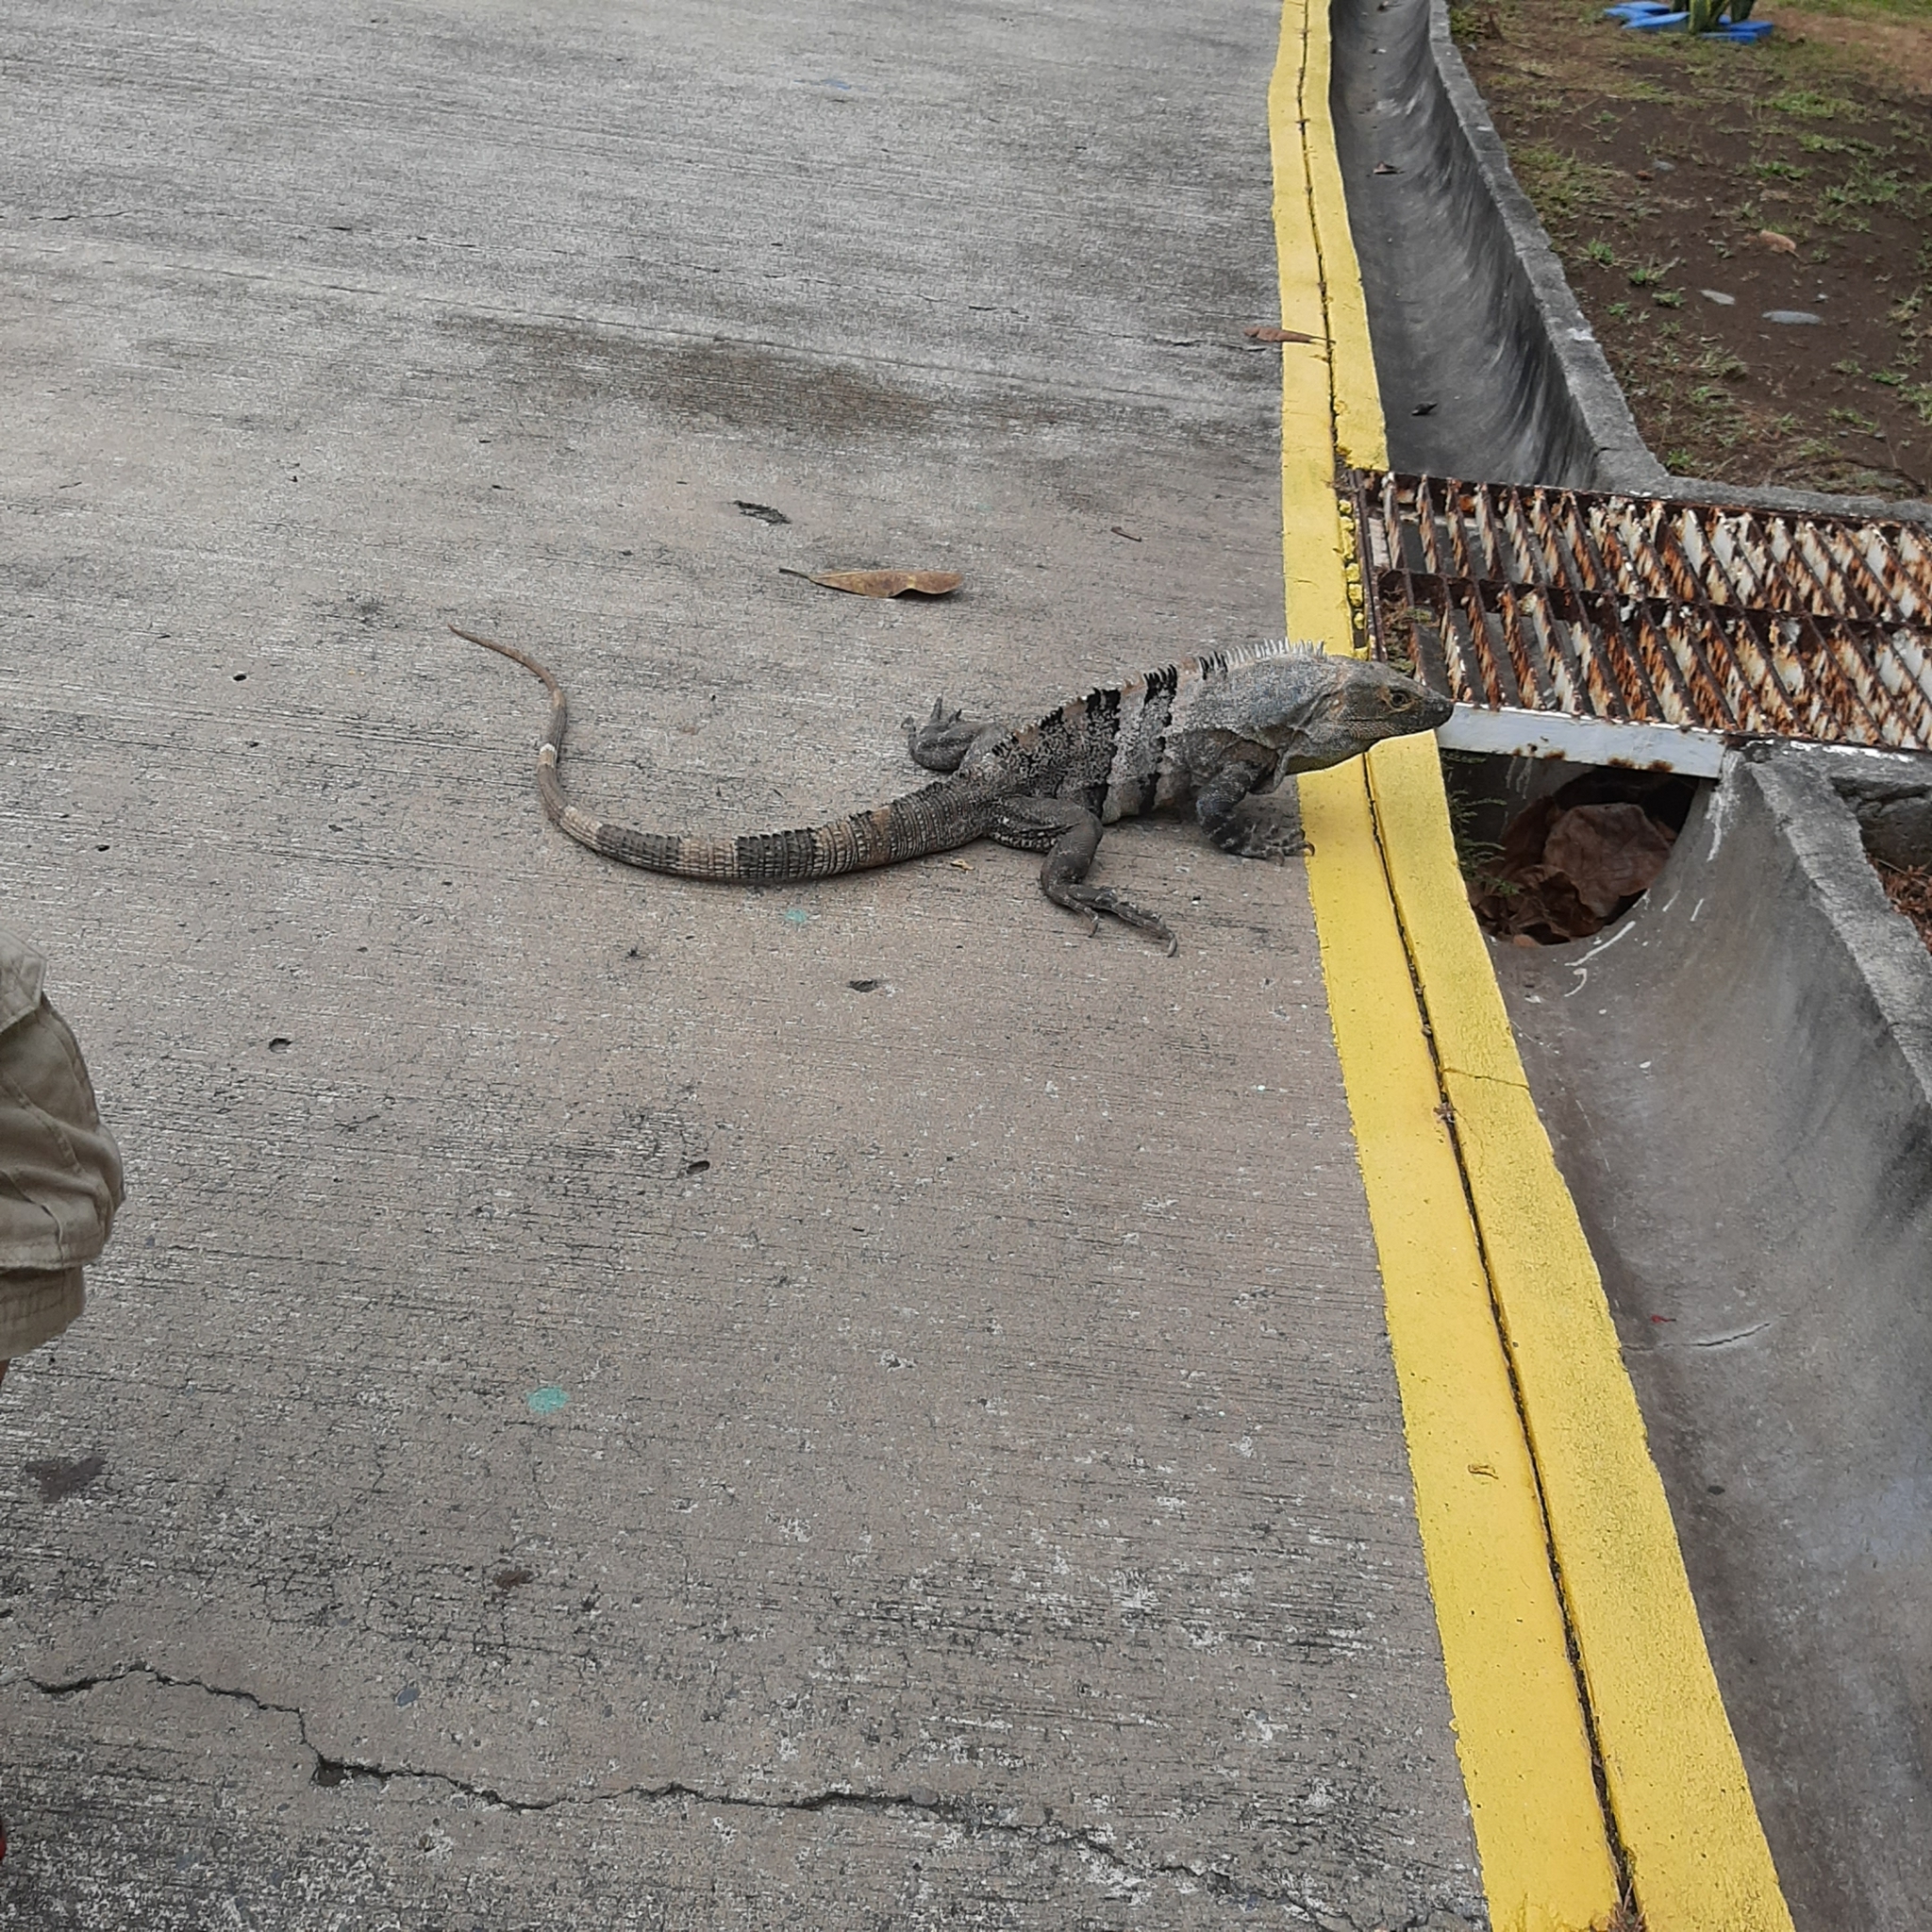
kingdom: Animalia
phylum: Chordata
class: Squamata
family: Iguanidae
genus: Ctenosaura
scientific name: Ctenosaura similis
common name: Black spiny-tailed iguana
